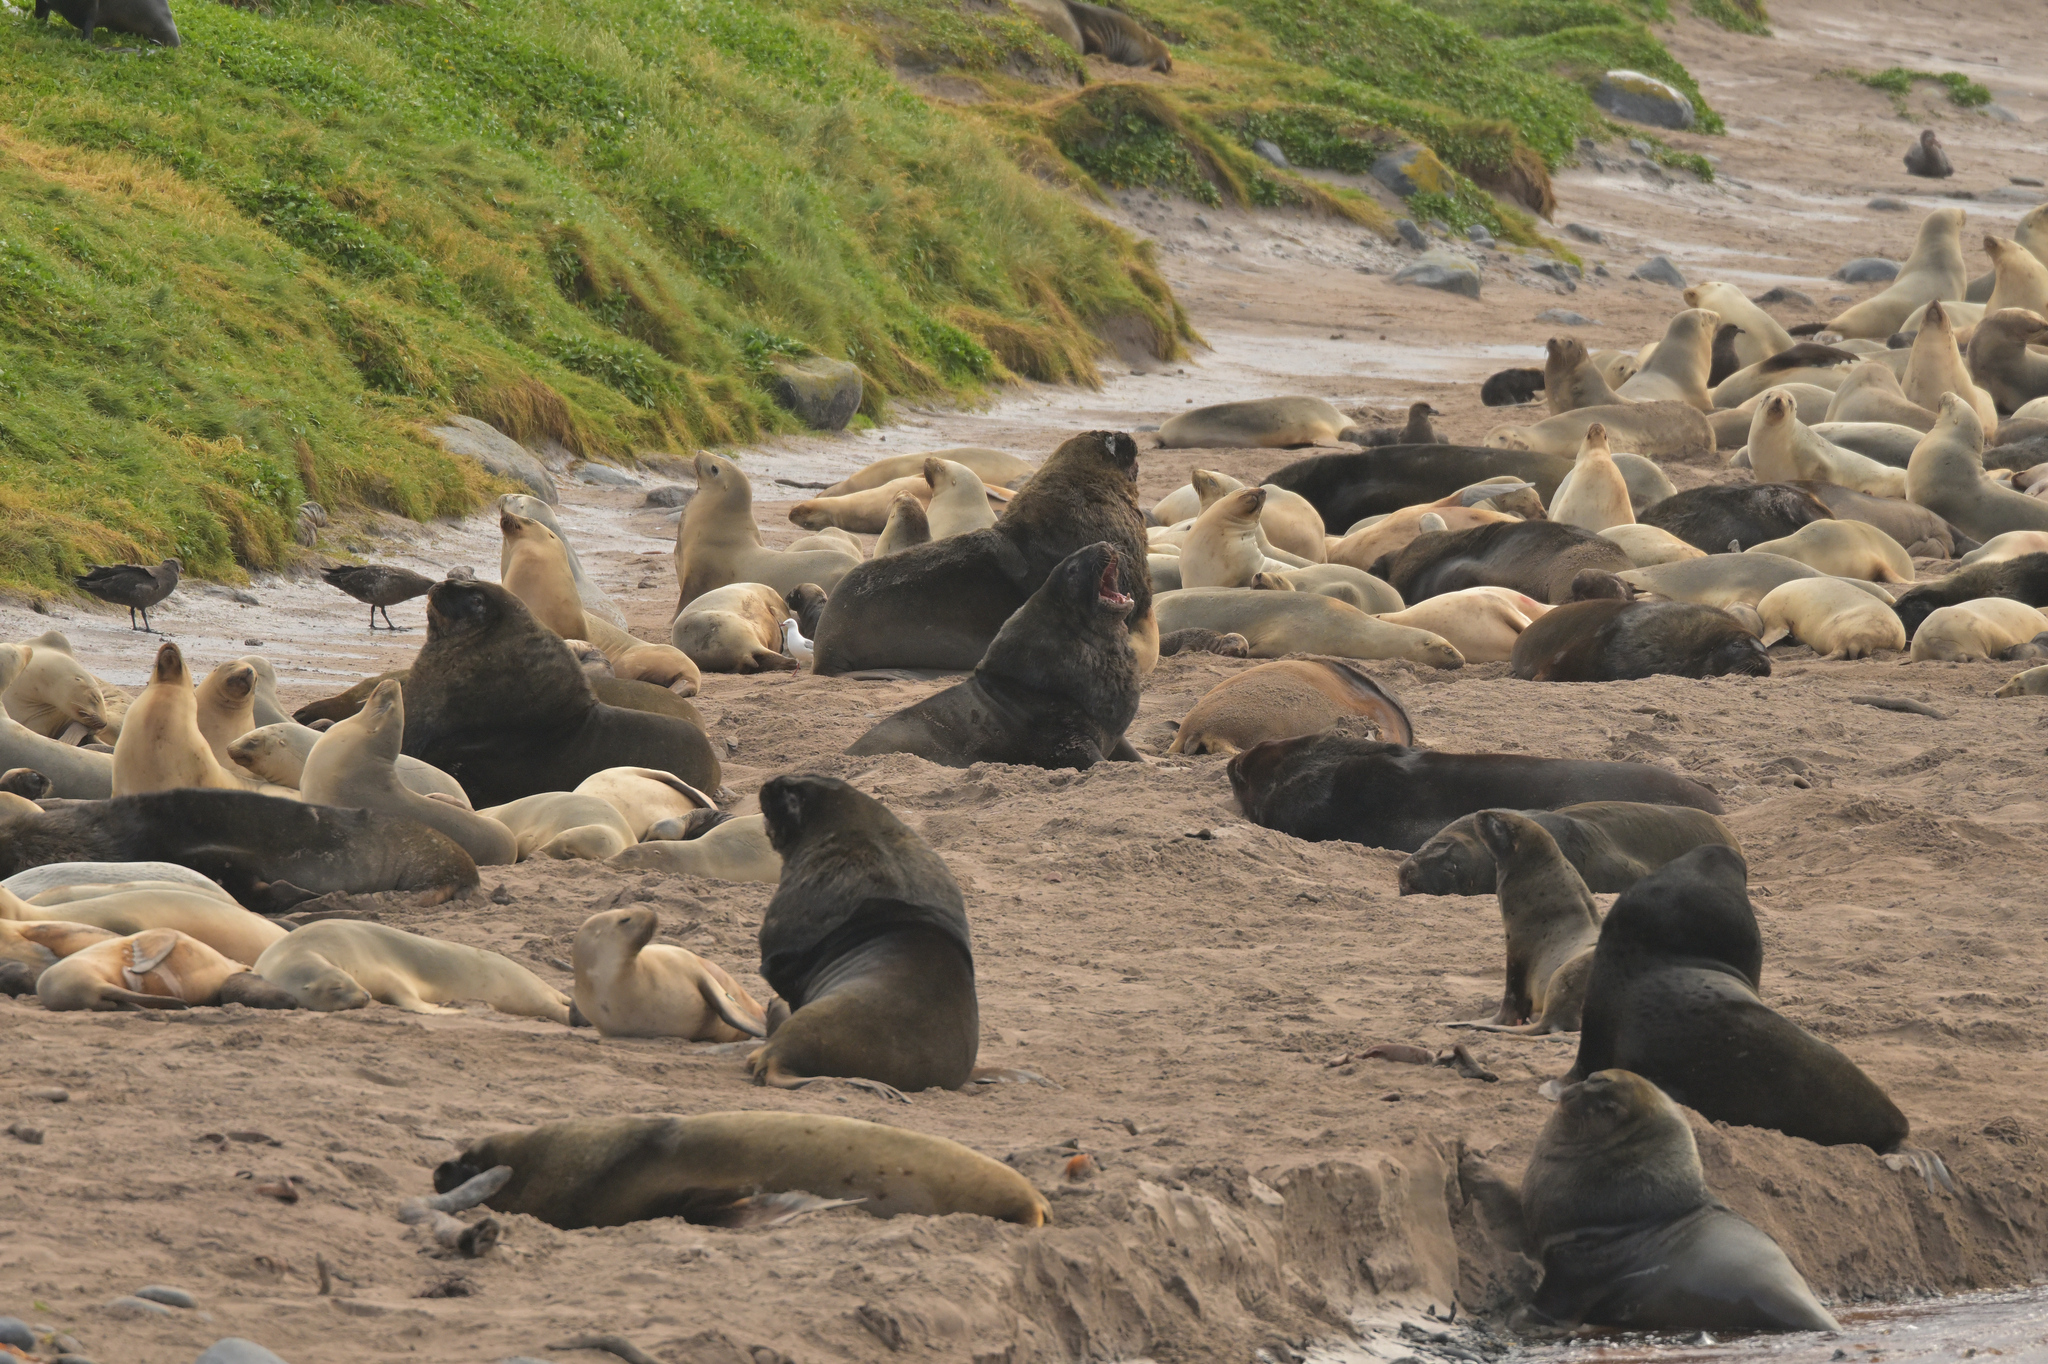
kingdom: Animalia
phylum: Chordata
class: Mammalia
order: Carnivora
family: Otariidae
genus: Phocarctos
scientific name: Phocarctos hookeri
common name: New zealand sea lion
